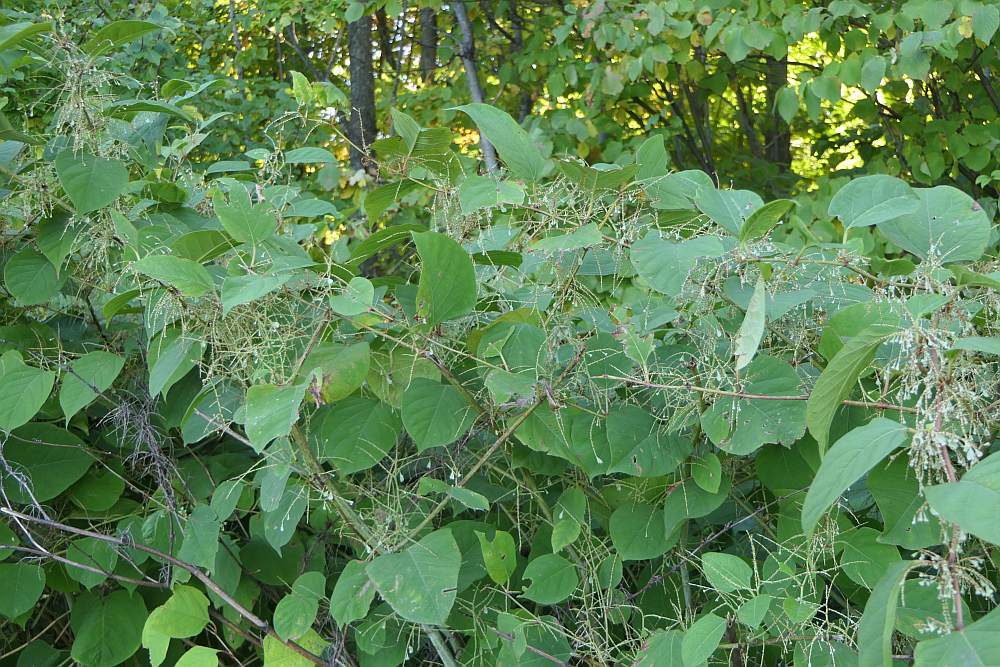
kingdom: Plantae
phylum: Tracheophyta
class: Magnoliopsida
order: Caryophyllales
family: Polygonaceae
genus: Reynoutria
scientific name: Reynoutria japonica
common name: Japanese knotweed
